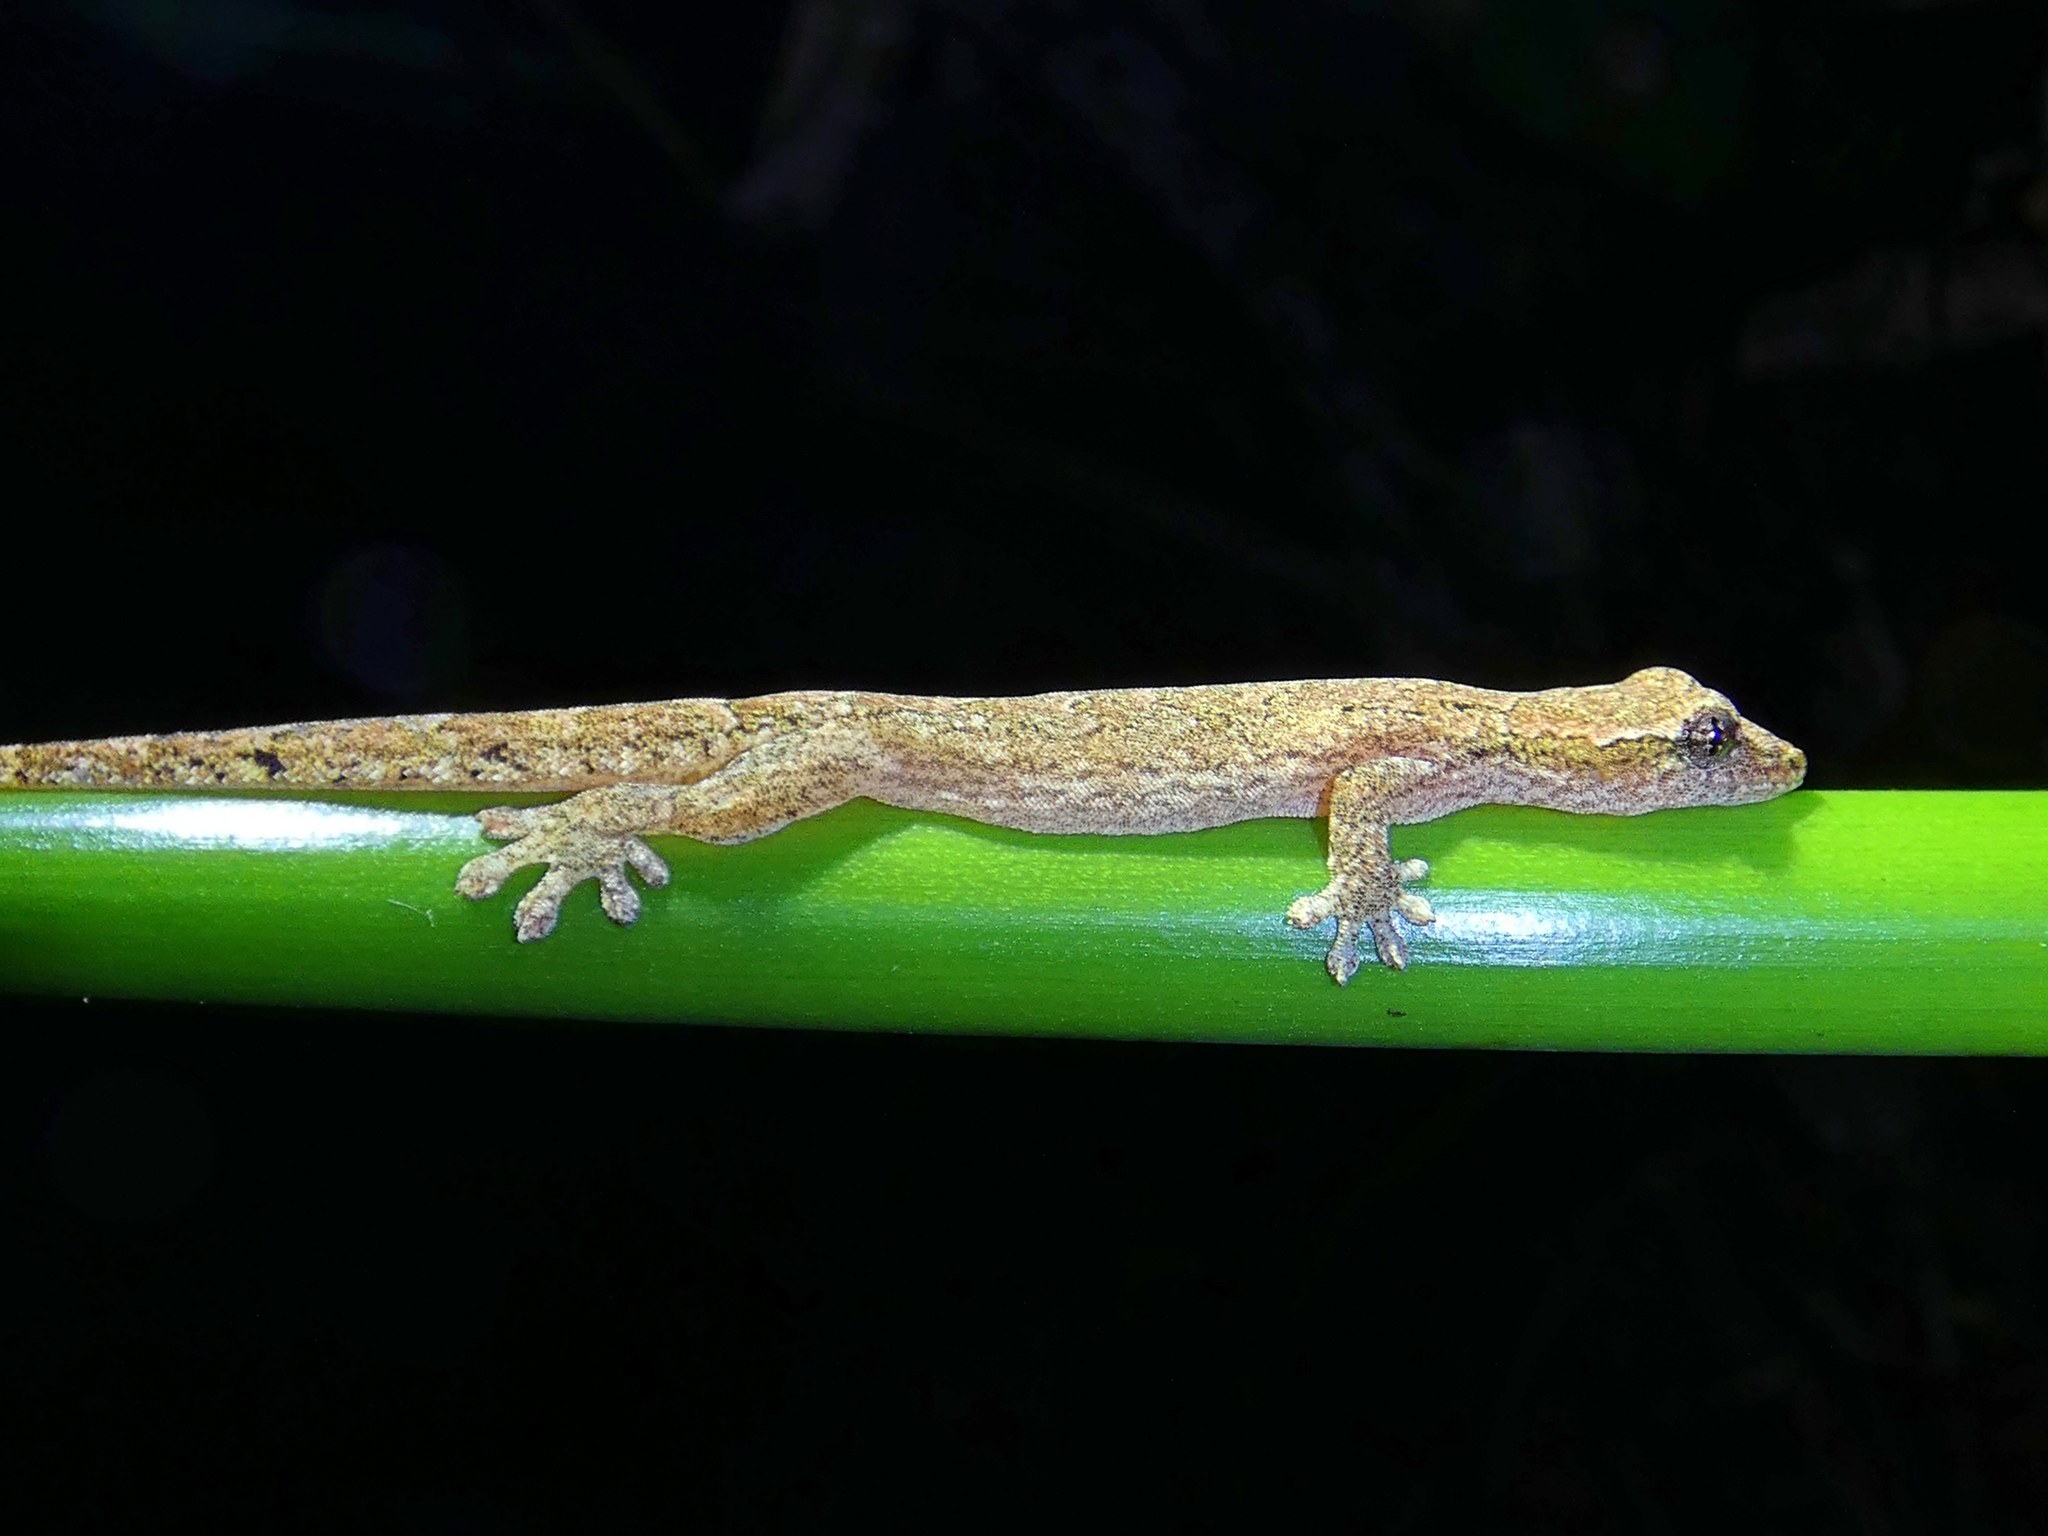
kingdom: Animalia
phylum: Chordata
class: Squamata
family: Gekkonidae
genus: Lepidodactylus
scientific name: Lepidodactylus lugubris
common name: Mourning gecko
